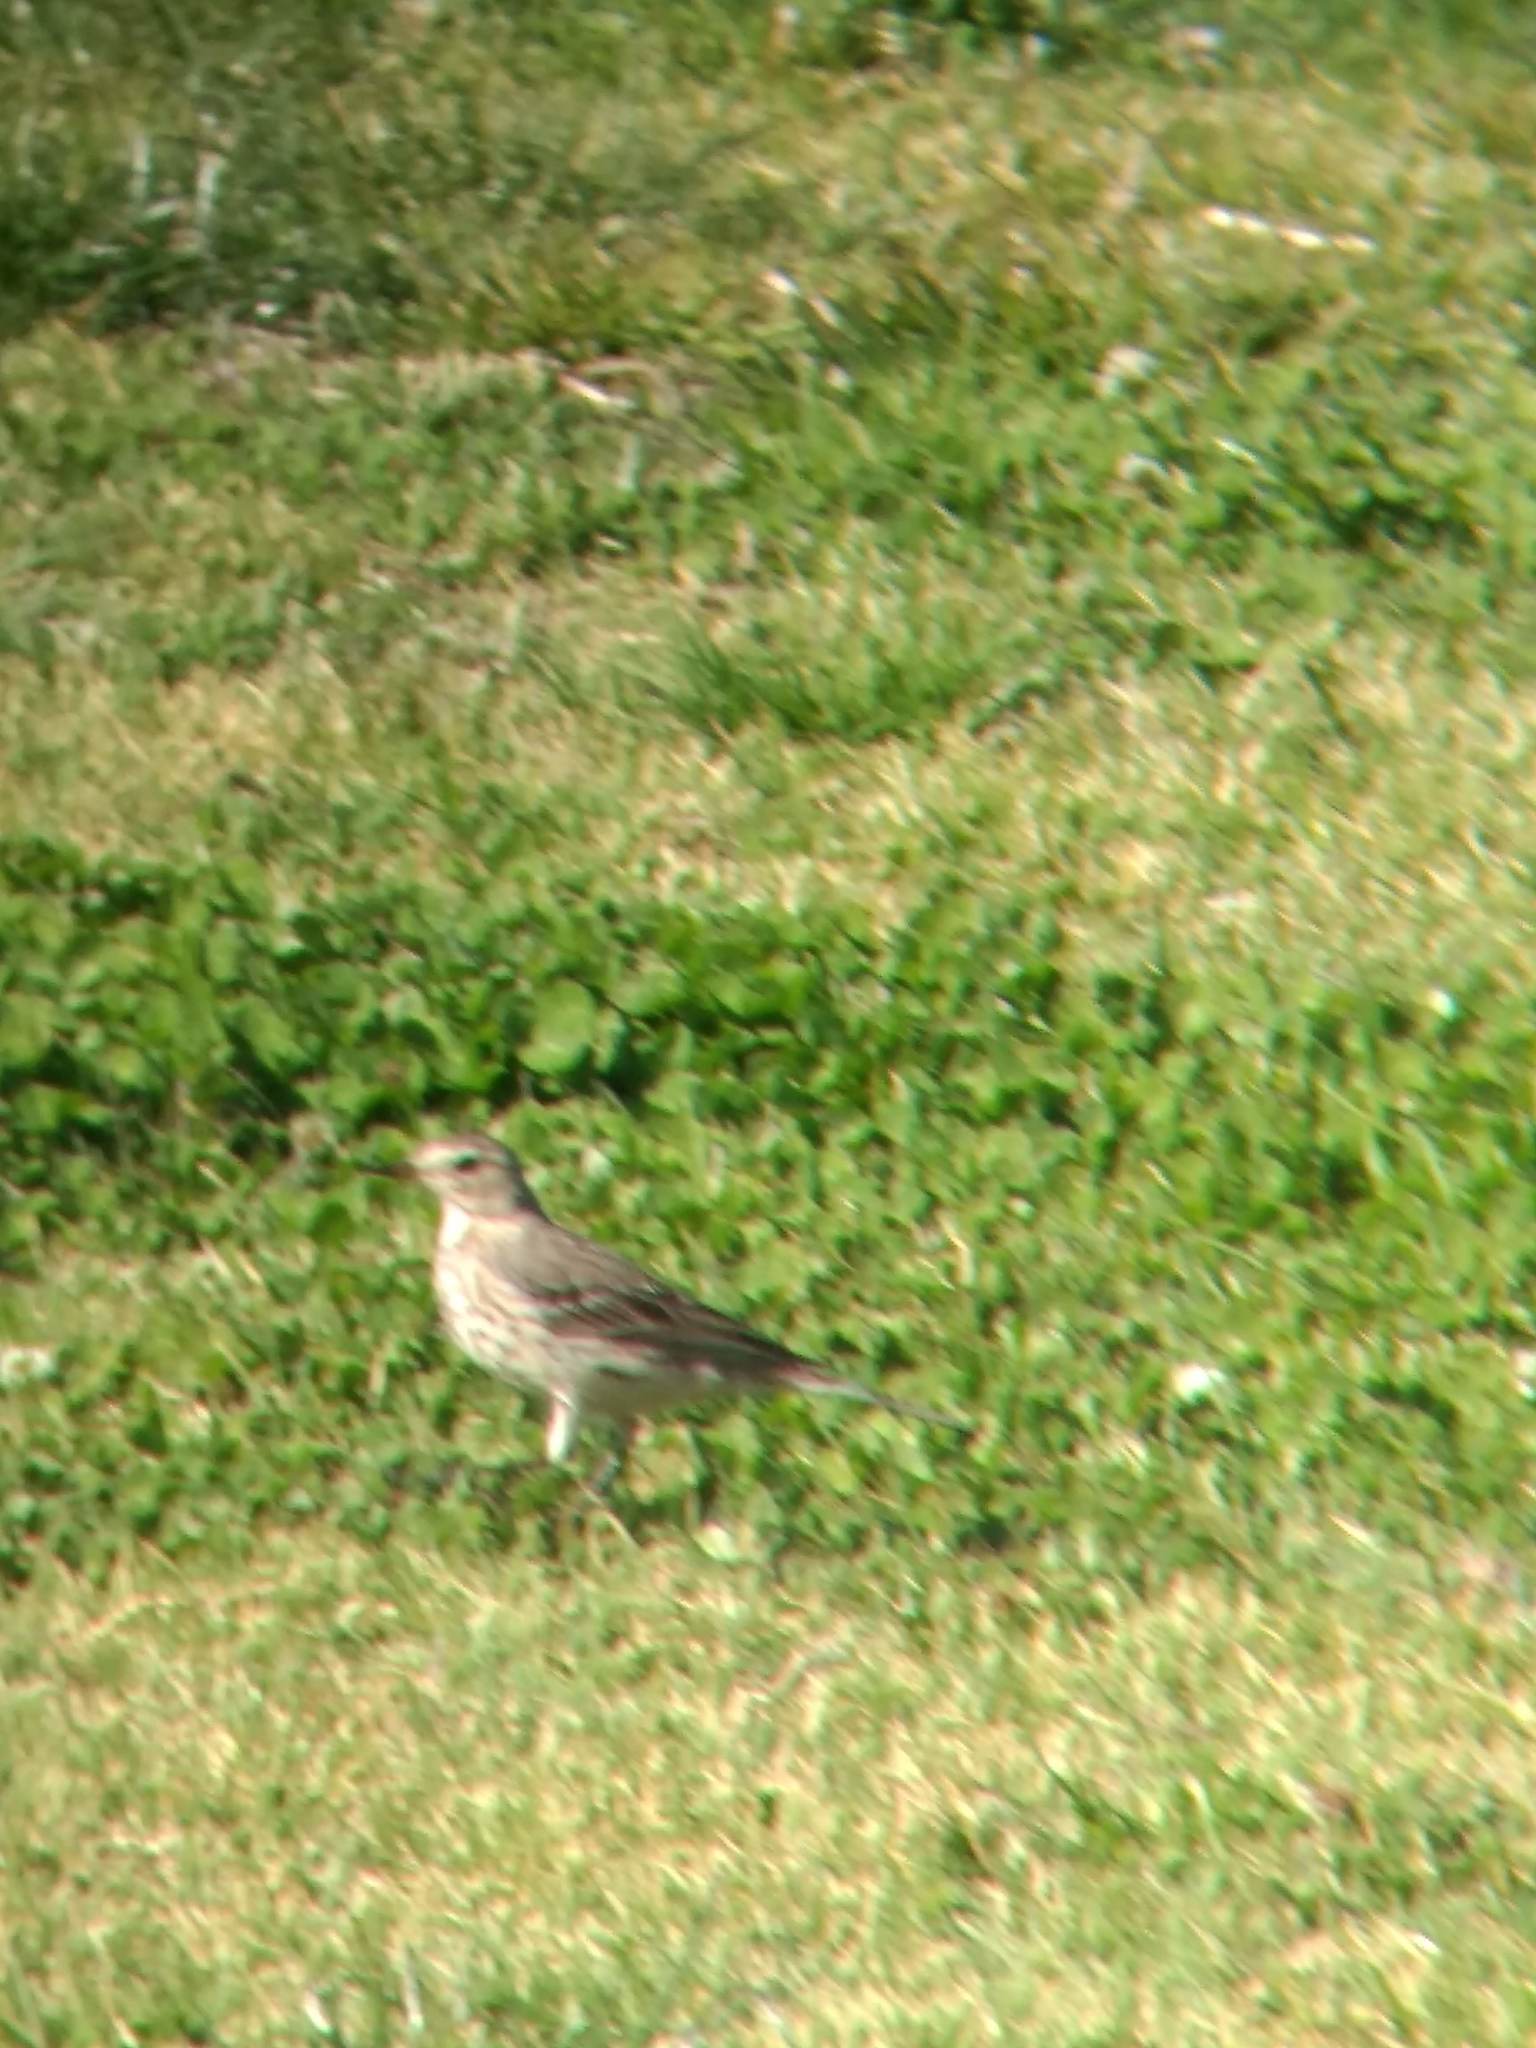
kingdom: Animalia
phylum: Chordata
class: Aves
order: Passeriformes
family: Motacillidae
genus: Anthus
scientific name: Anthus rubescens
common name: Buff-bellied pipit
